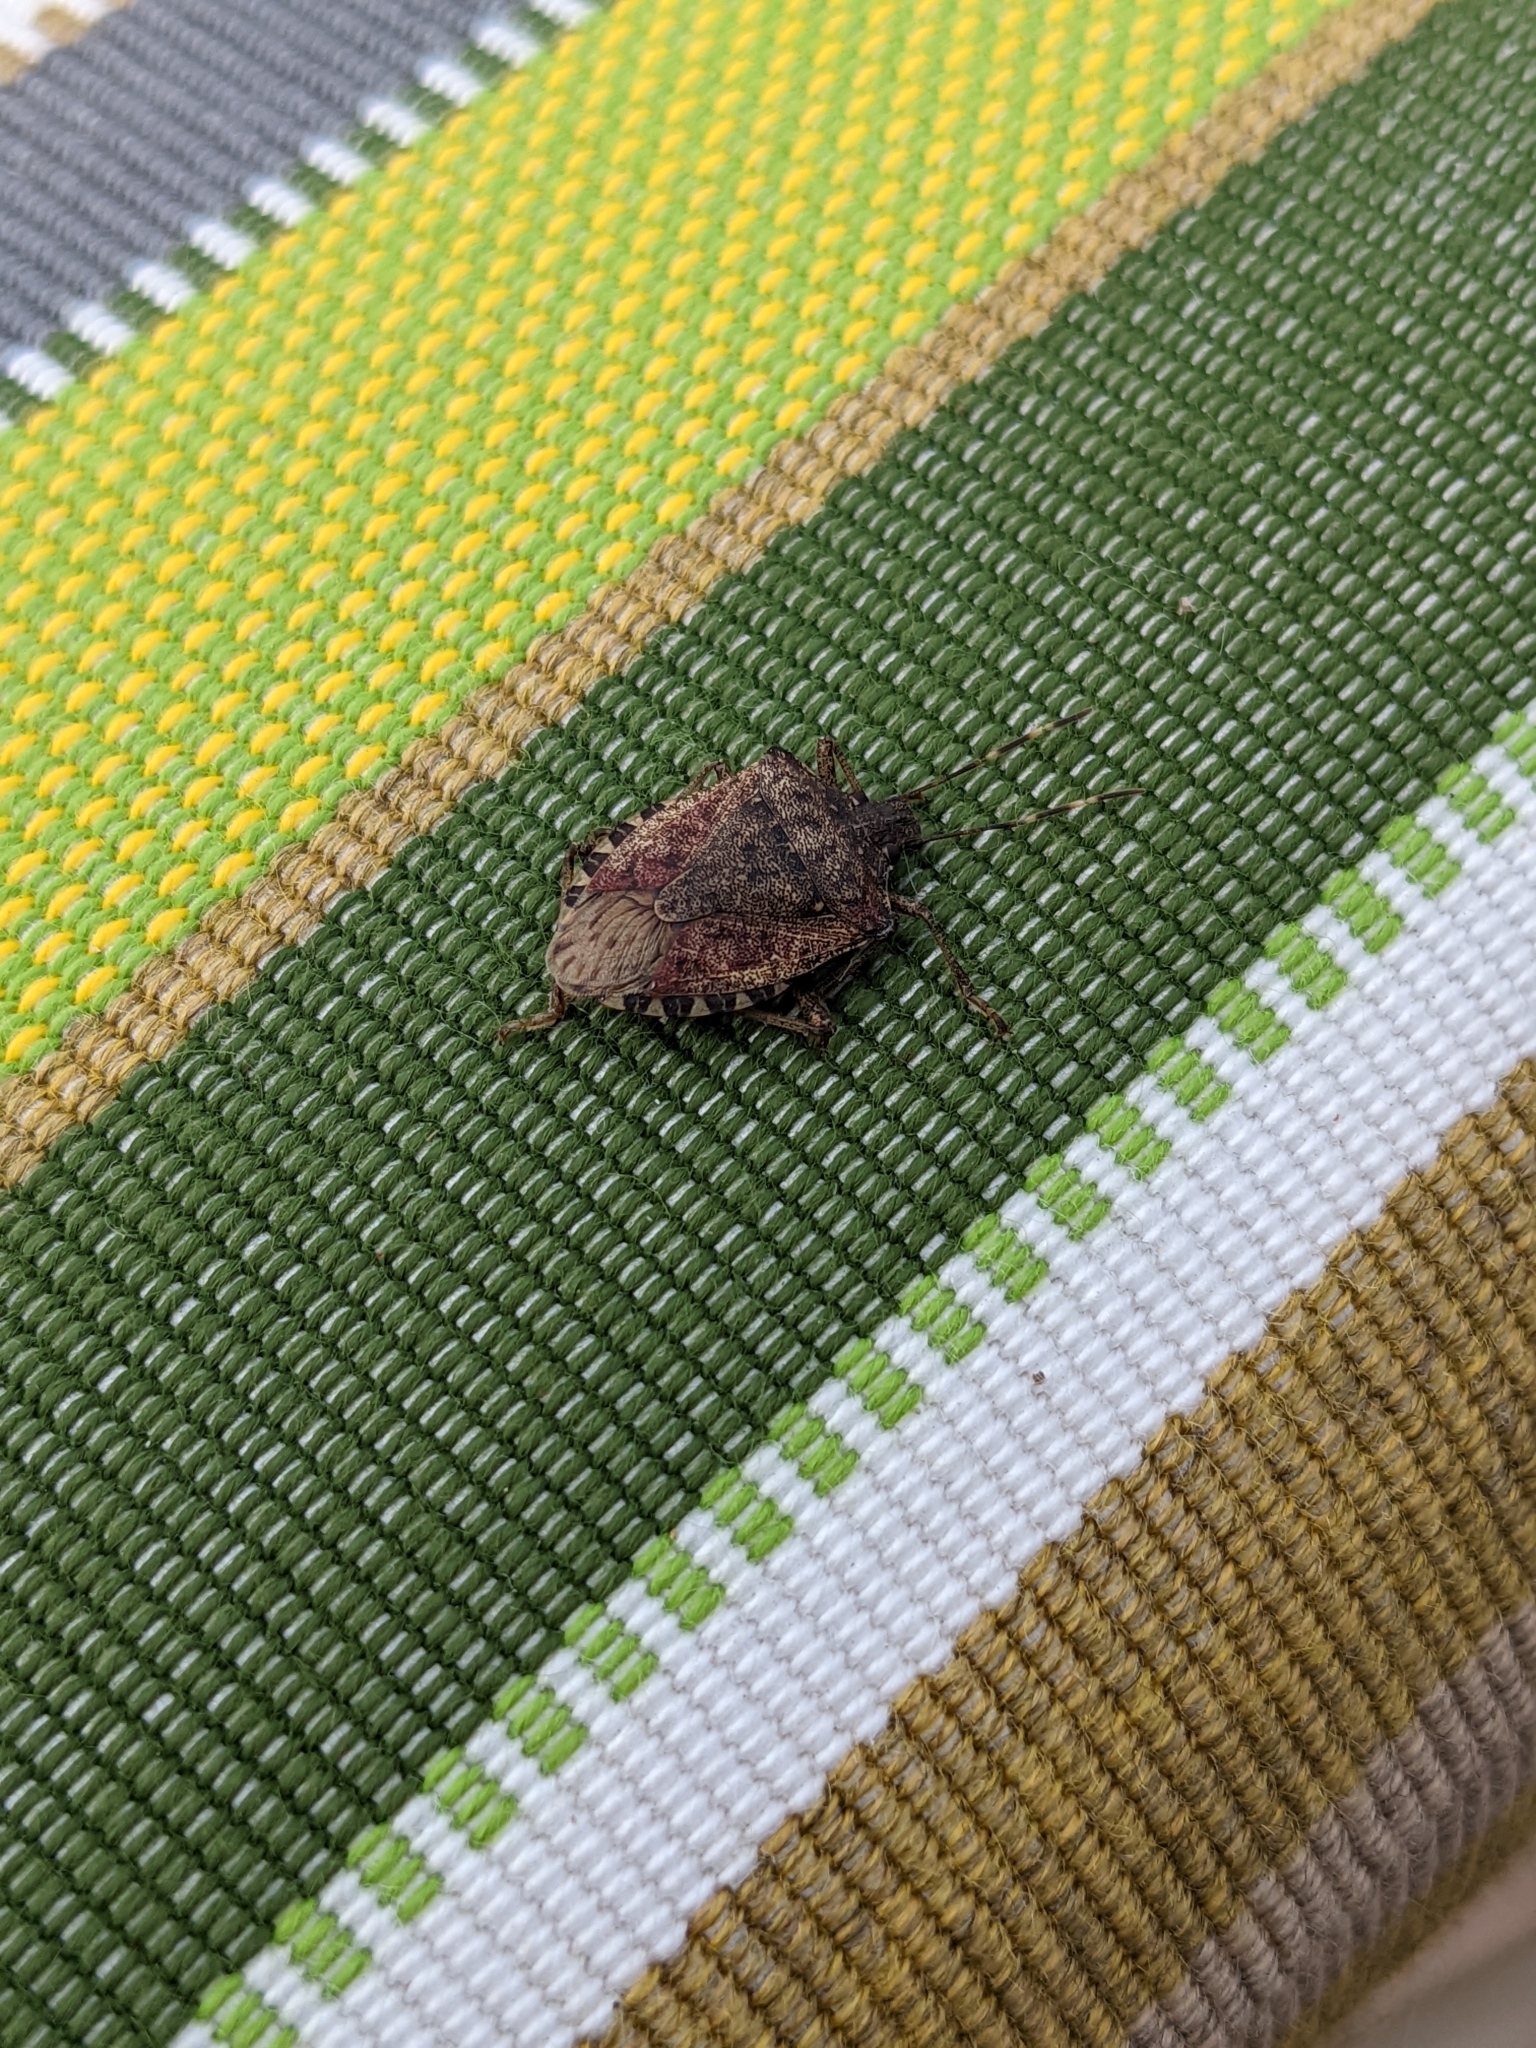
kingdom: Animalia
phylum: Arthropoda
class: Insecta
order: Hemiptera
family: Pentatomidae
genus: Halyomorpha
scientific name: Halyomorpha halys
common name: Brown marmorated stink bug
